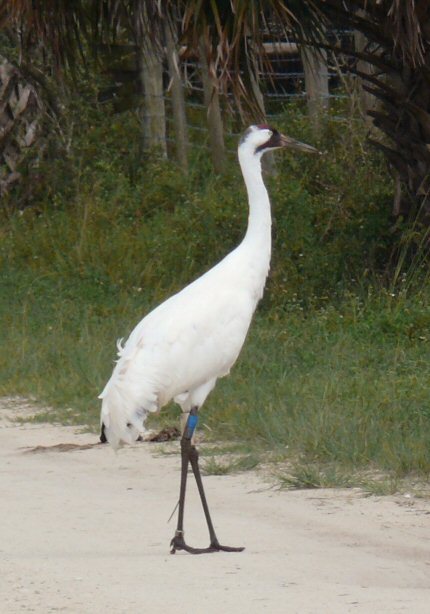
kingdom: Animalia
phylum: Chordata
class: Aves
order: Gruiformes
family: Gruidae
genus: Grus
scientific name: Grus americana
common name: Whooping crane
